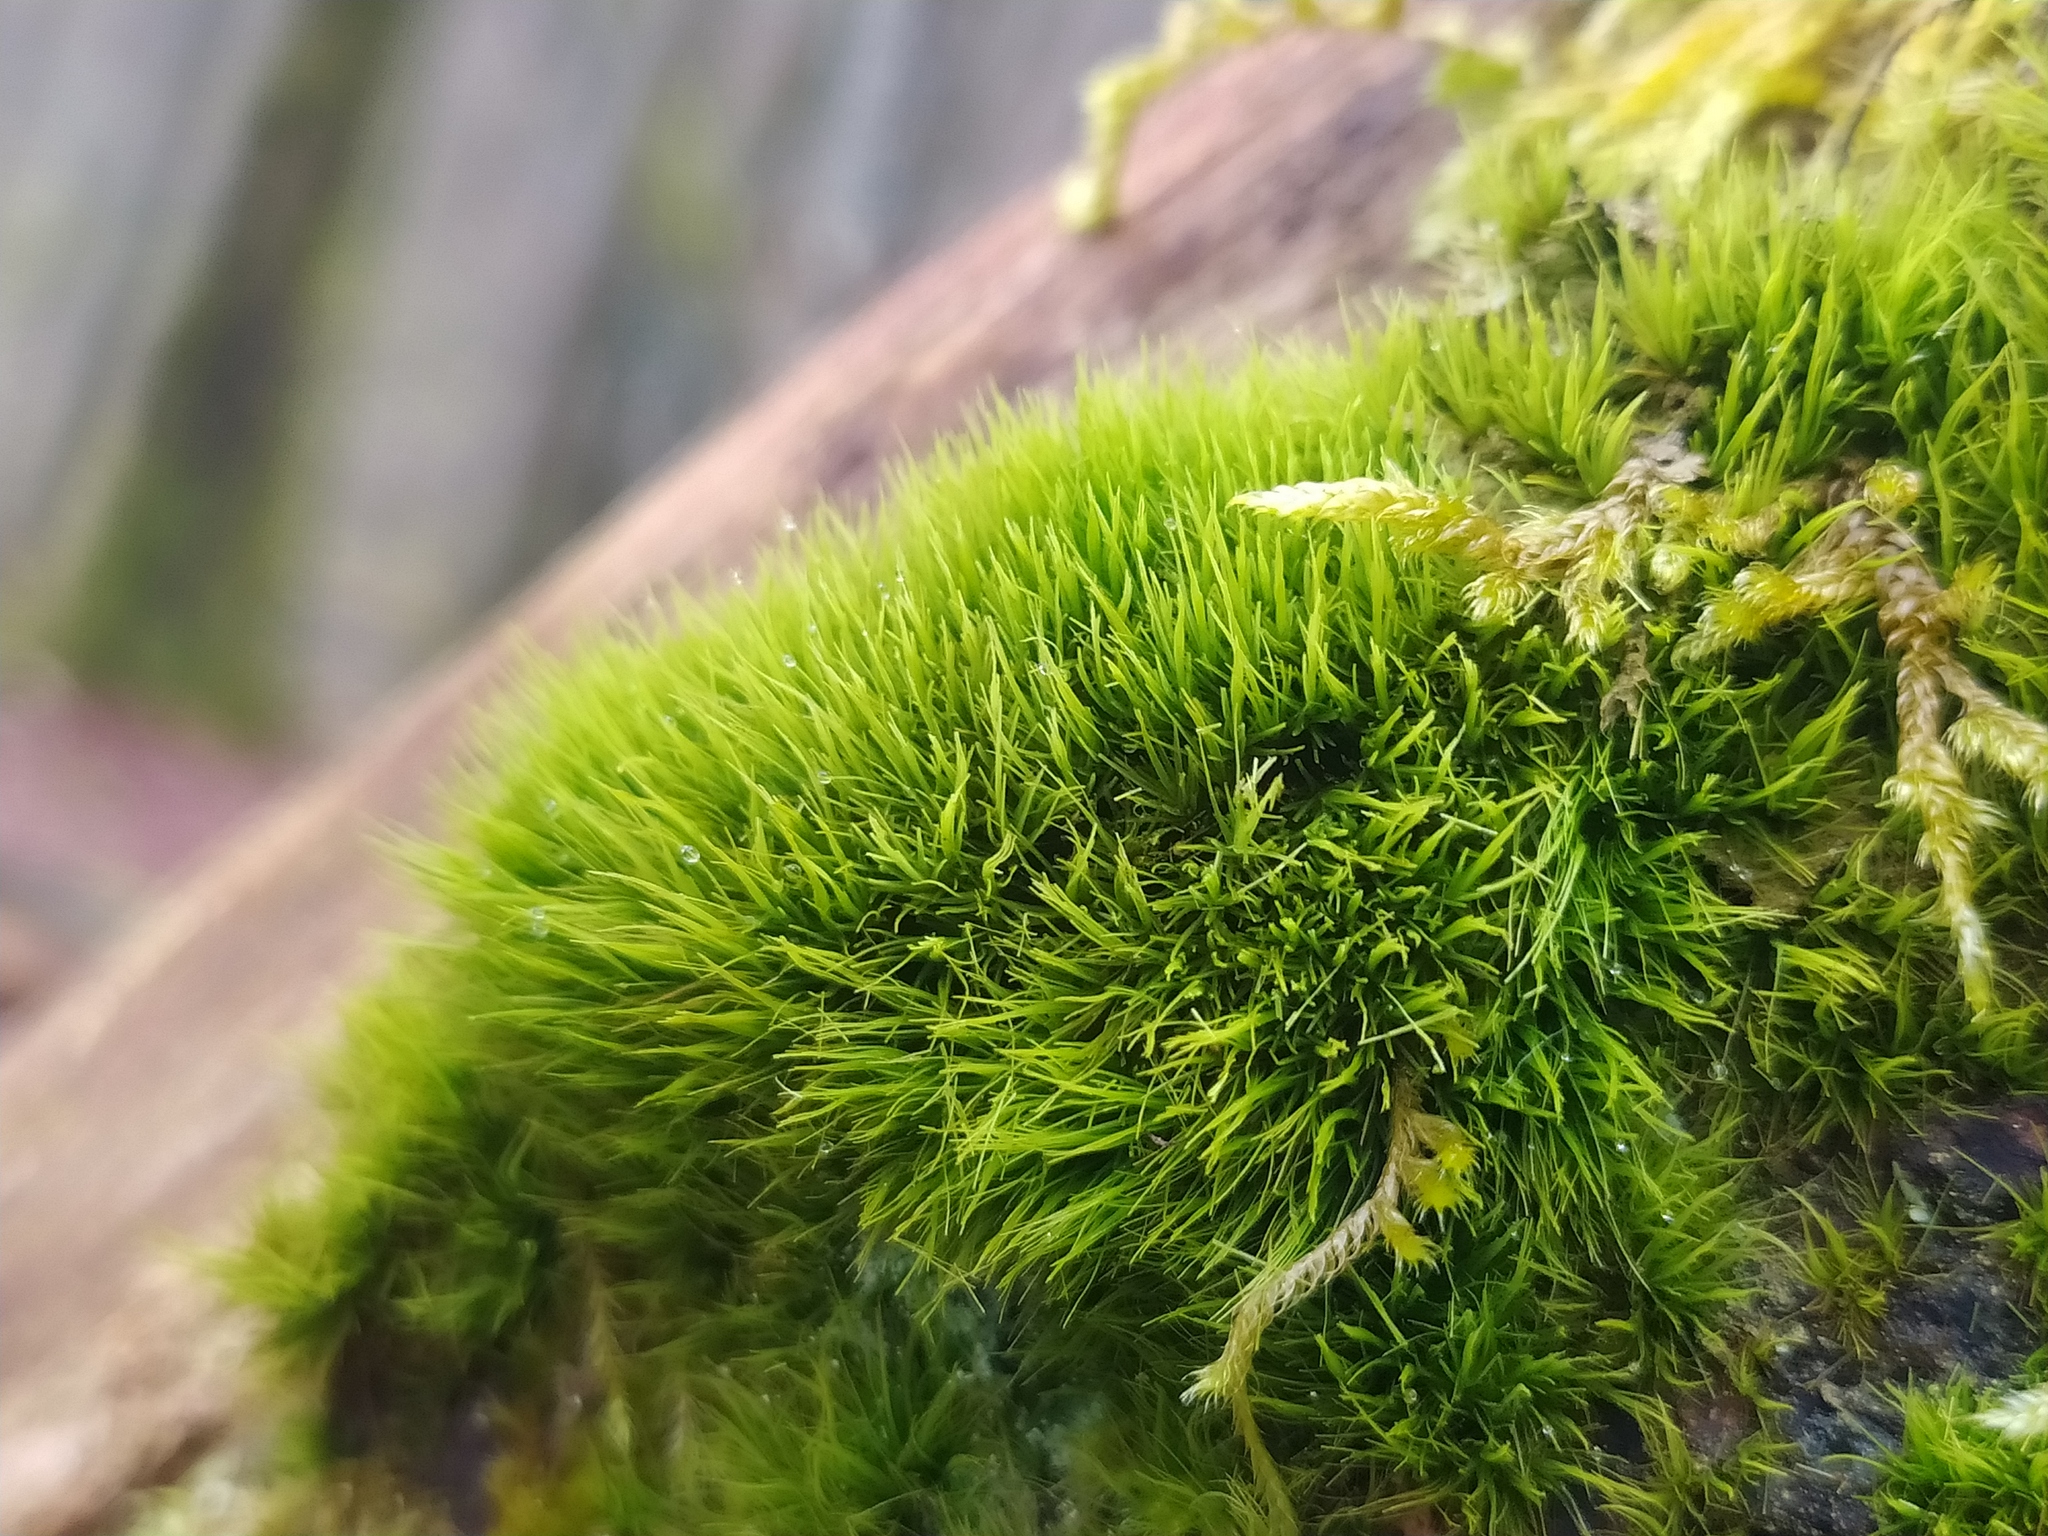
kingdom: Plantae
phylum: Bryophyta
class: Bryopsida
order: Dicranales
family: Dicranaceae
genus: Orthodicranum
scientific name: Orthodicranum tauricum
